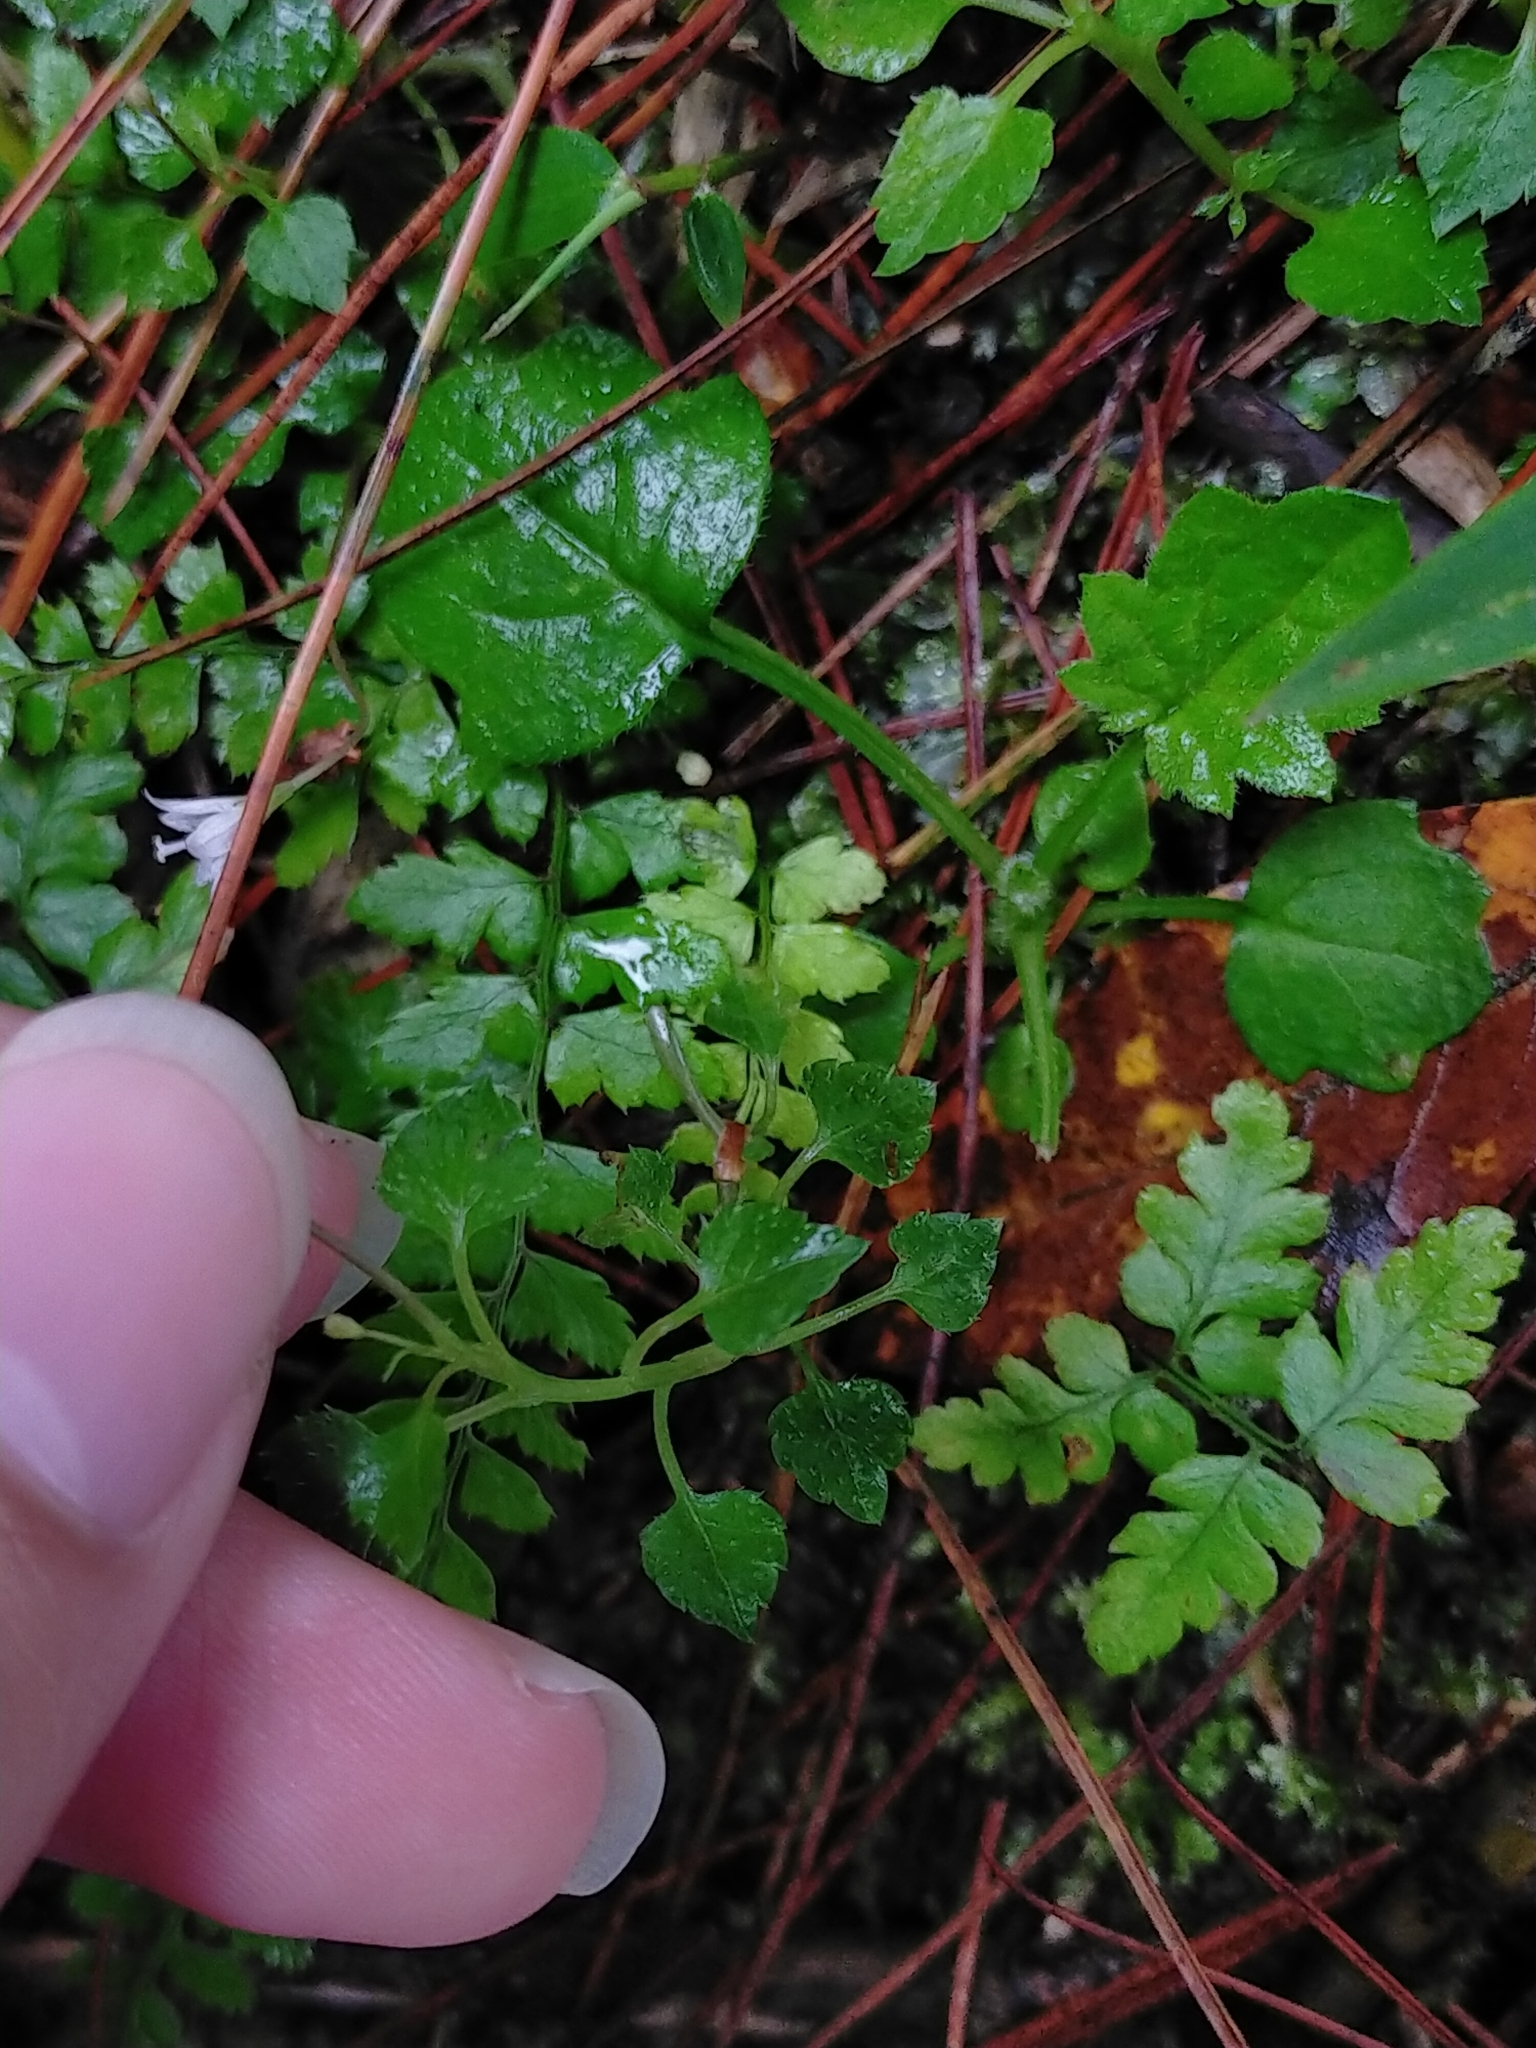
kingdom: Plantae
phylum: Tracheophyta
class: Magnoliopsida
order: Asterales
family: Campanulaceae
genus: Peracarpa
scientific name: Peracarpa carnosa
